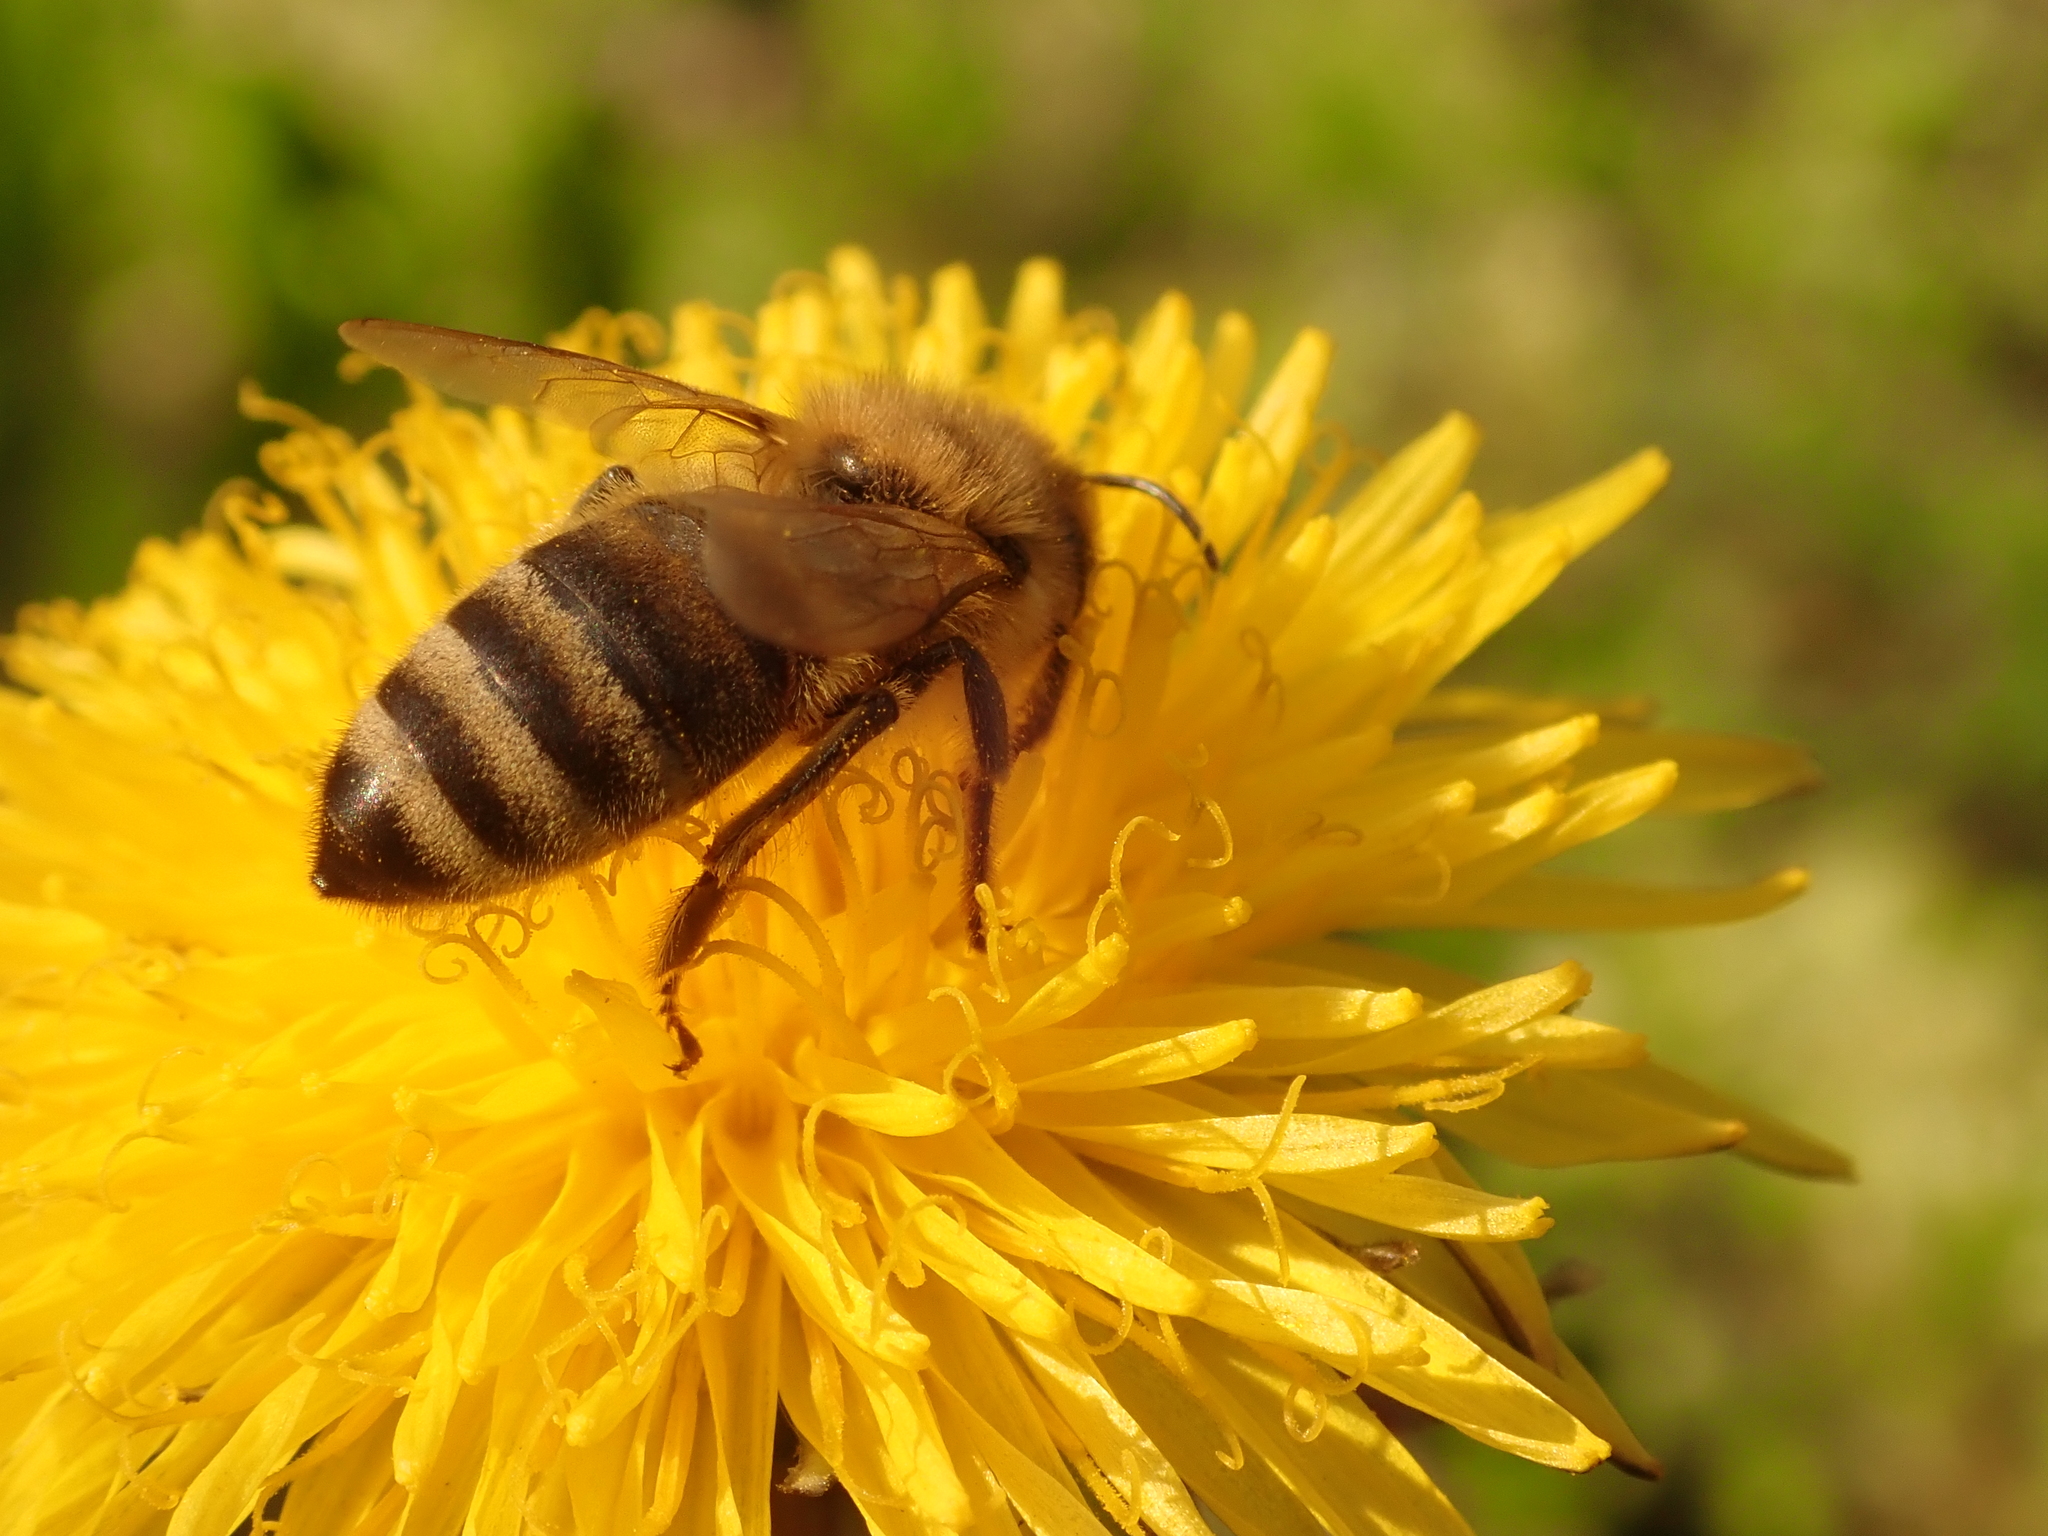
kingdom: Animalia
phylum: Arthropoda
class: Insecta
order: Hymenoptera
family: Apidae
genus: Apis
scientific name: Apis mellifera
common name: Honey bee
